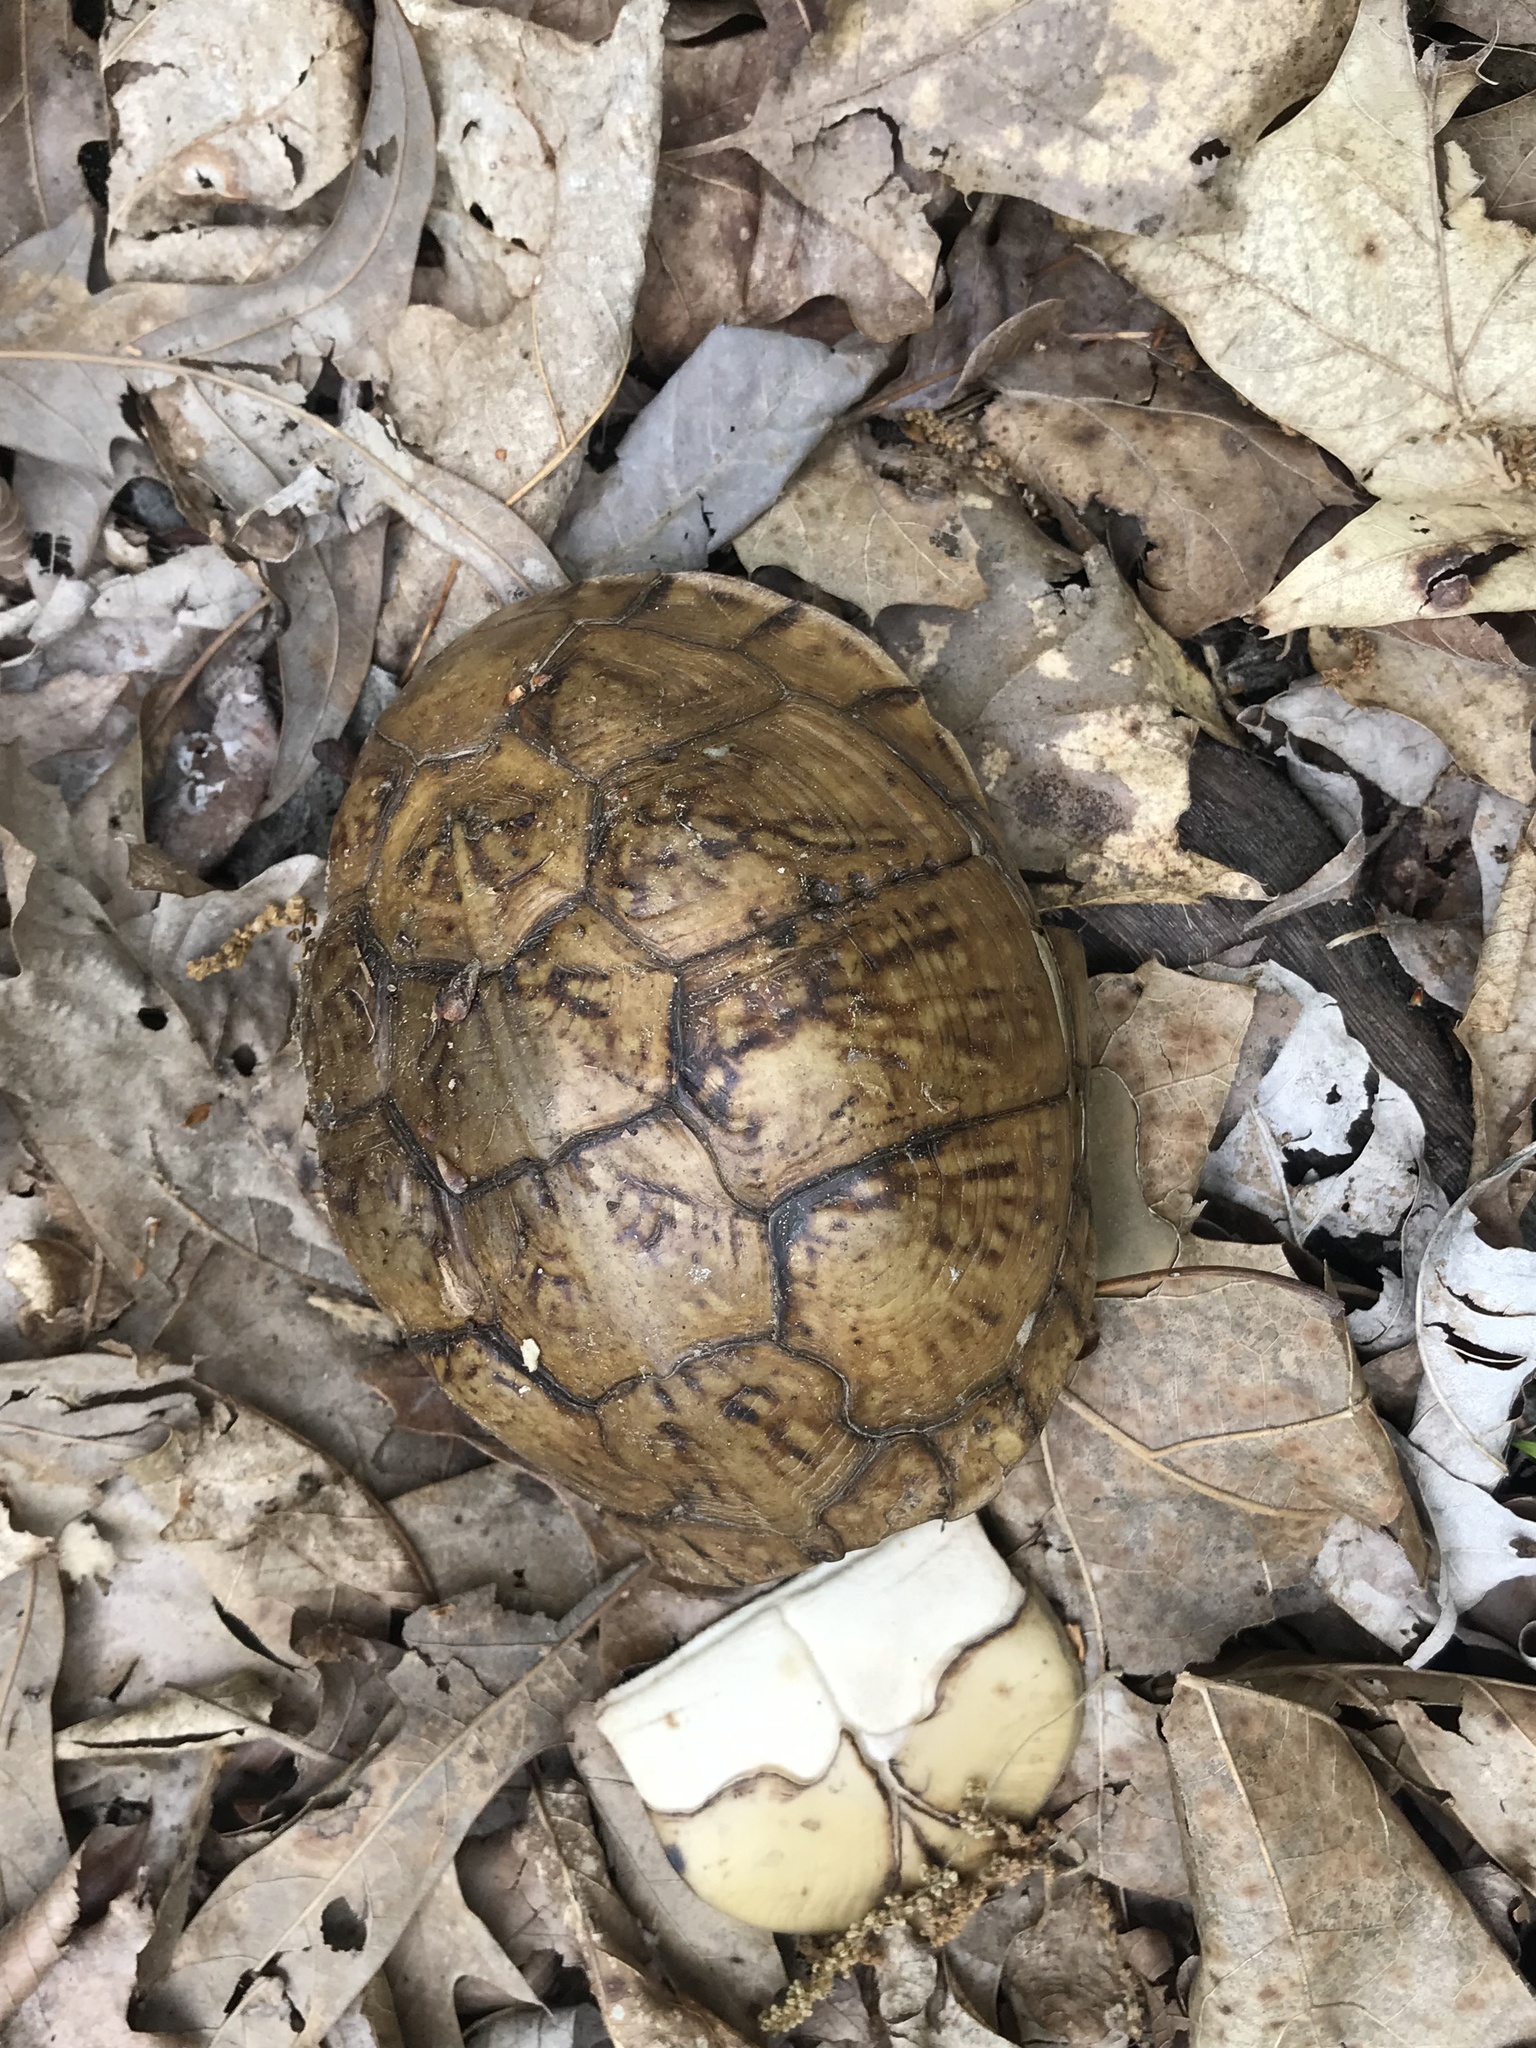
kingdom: Animalia
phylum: Chordata
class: Testudines
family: Emydidae
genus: Terrapene
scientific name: Terrapene carolina
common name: Common box turtle
